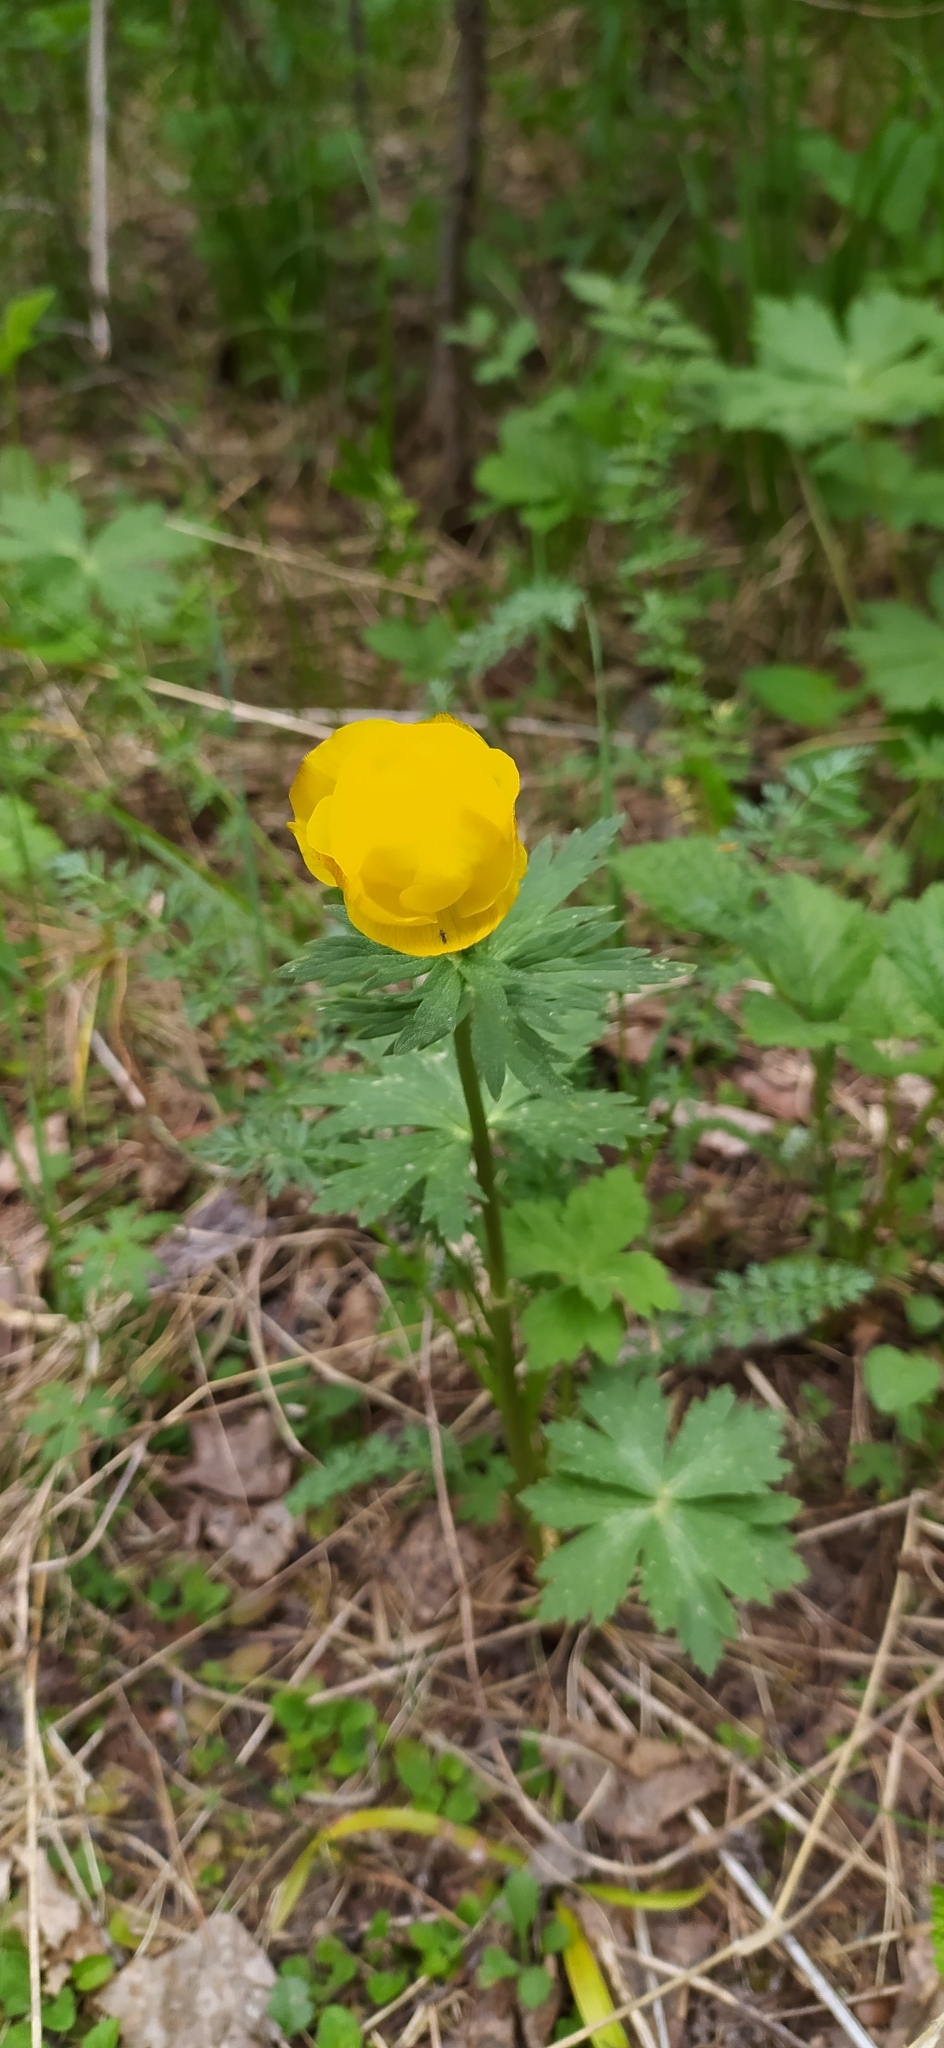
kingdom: Plantae
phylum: Tracheophyta
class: Magnoliopsida
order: Ranunculales
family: Ranunculaceae
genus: Trollius
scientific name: Trollius europaeus
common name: European globeflower
